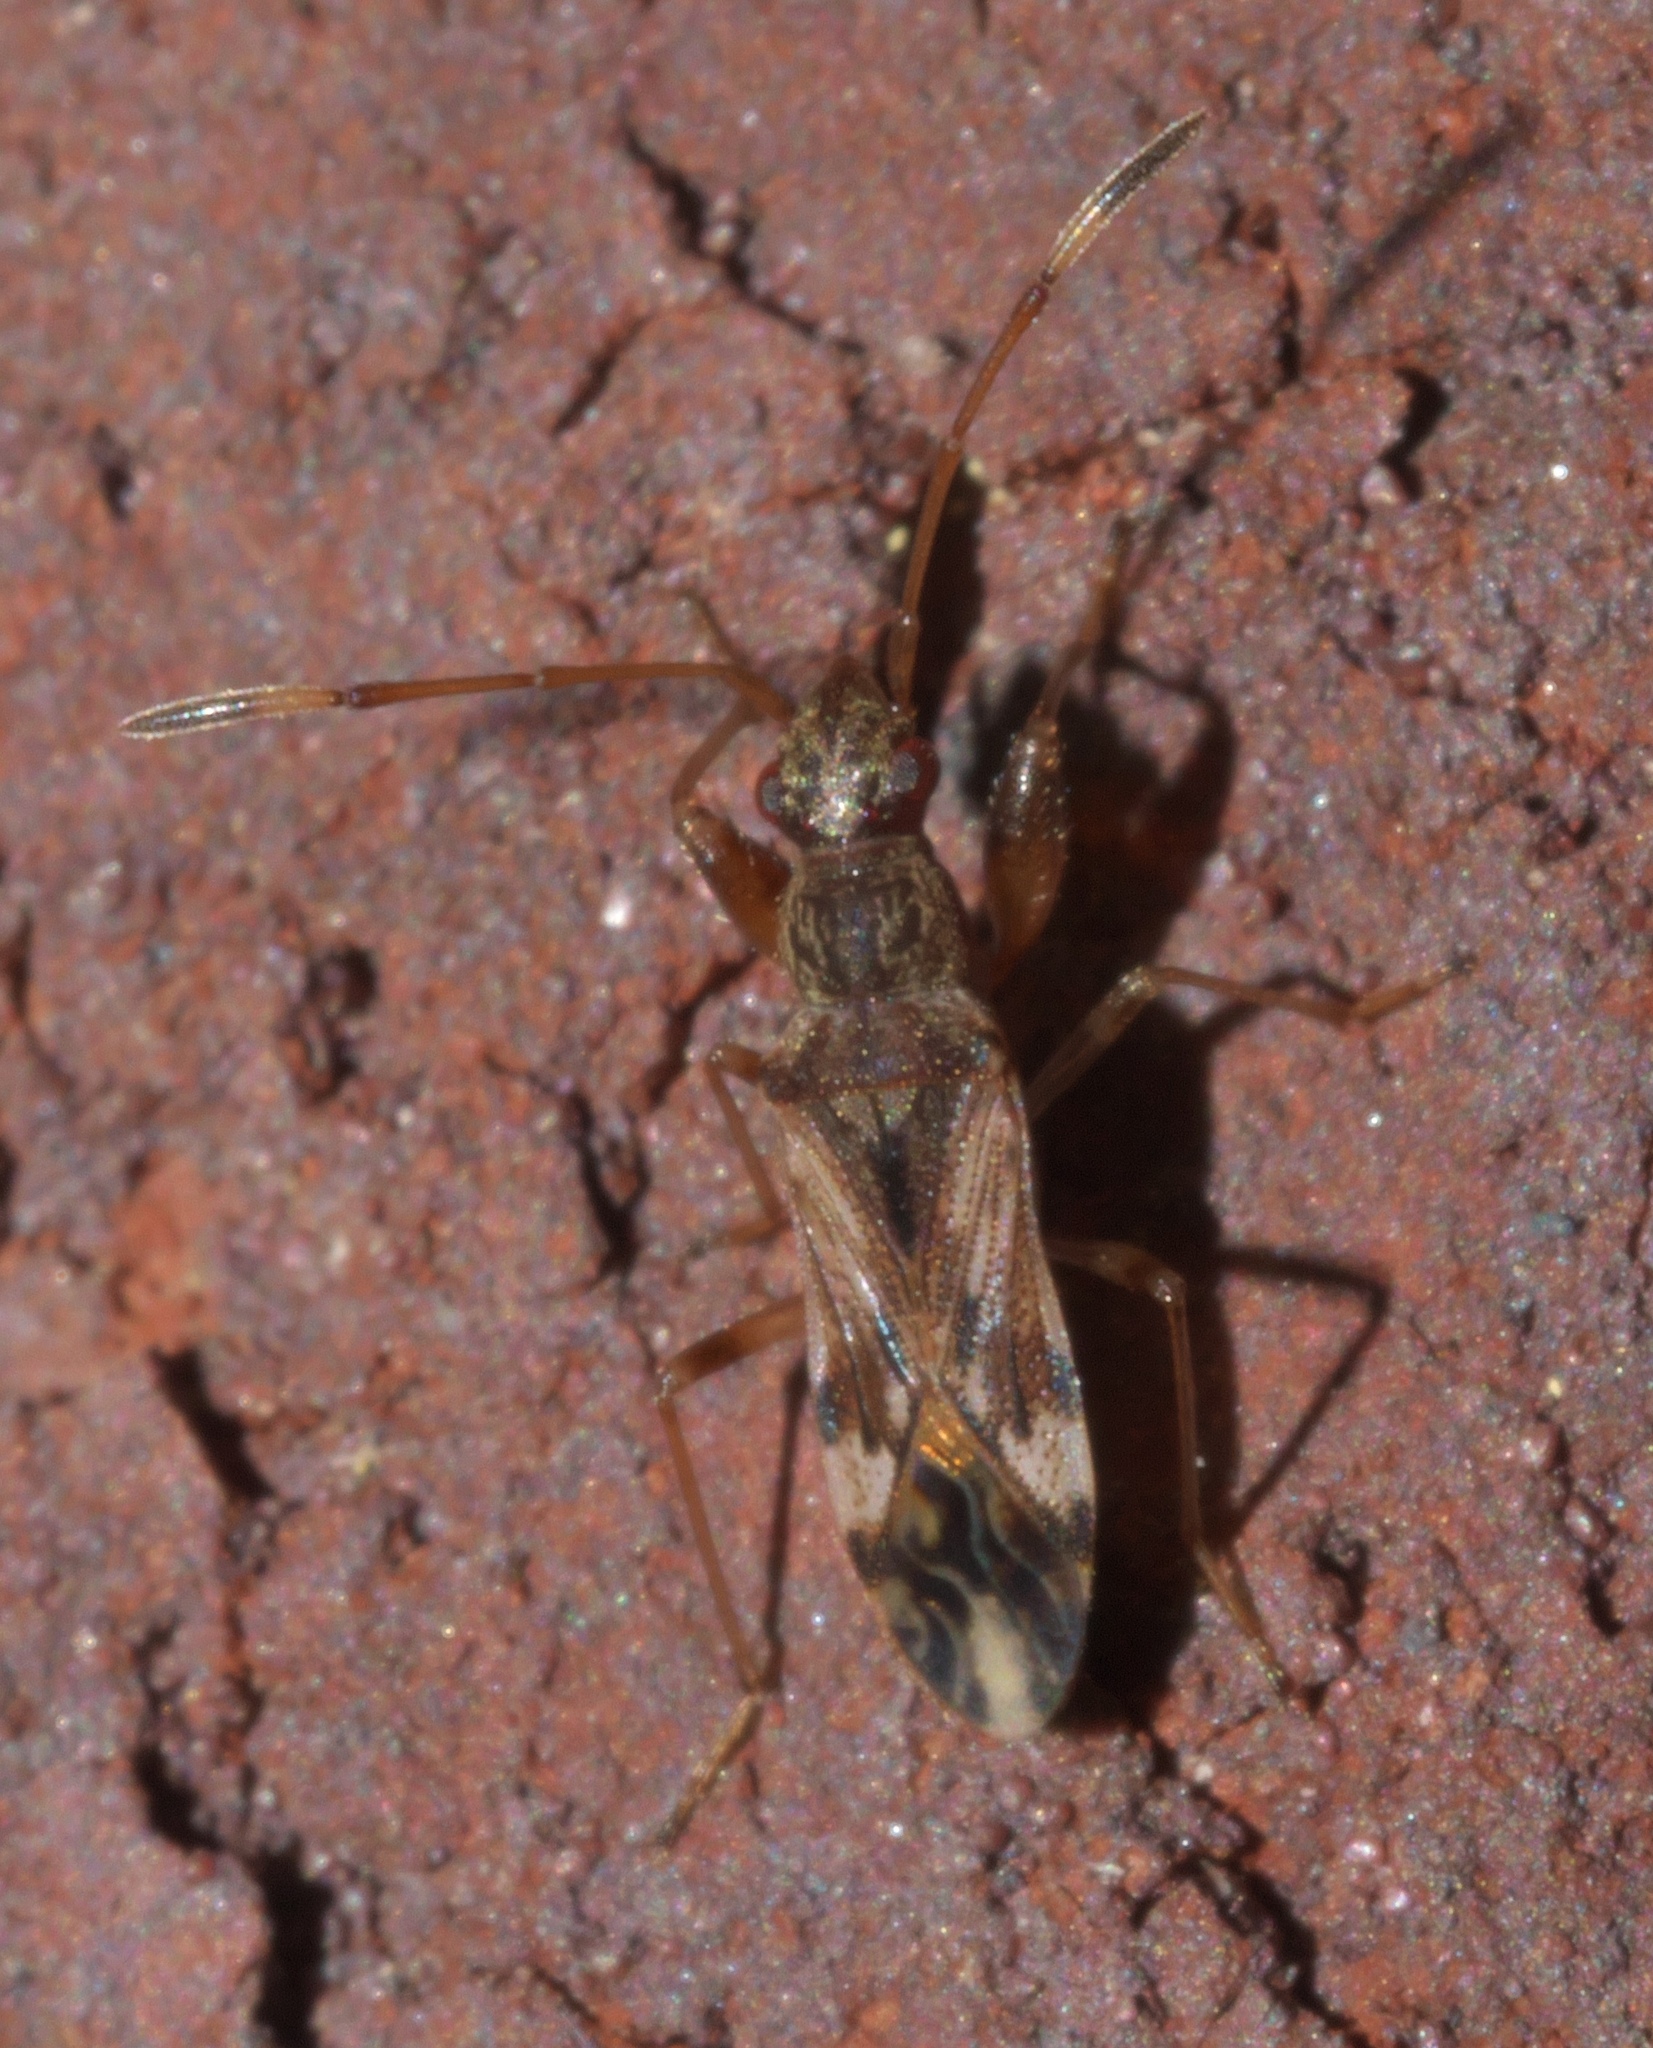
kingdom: Animalia
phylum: Arthropoda
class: Insecta
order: Hemiptera
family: Rhyparochromidae
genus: Neopamera
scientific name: Neopamera albocincta
